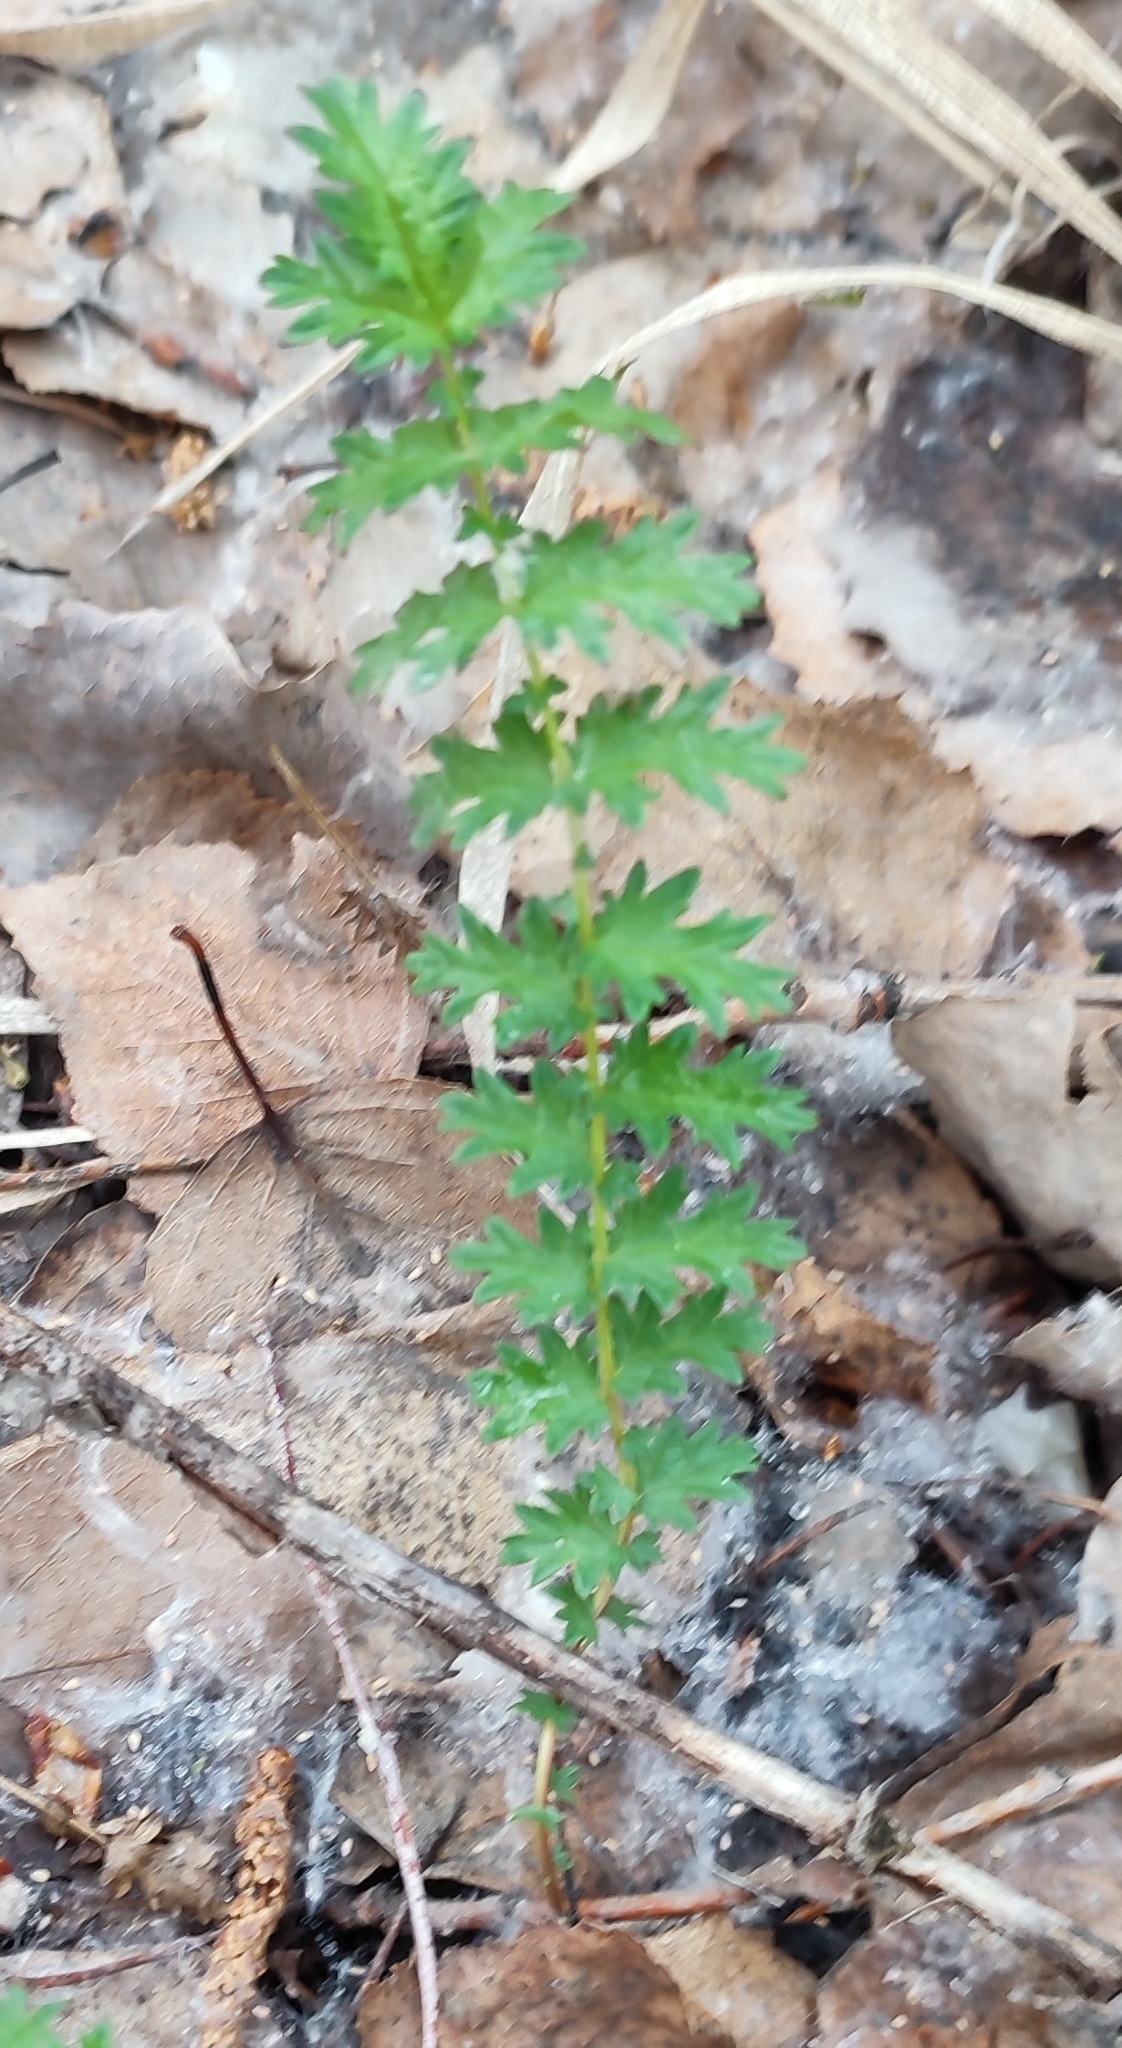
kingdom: Plantae
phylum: Tracheophyta
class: Magnoliopsida
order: Rosales
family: Rosaceae
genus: Filipendula
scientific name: Filipendula vulgaris
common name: Dropwort
